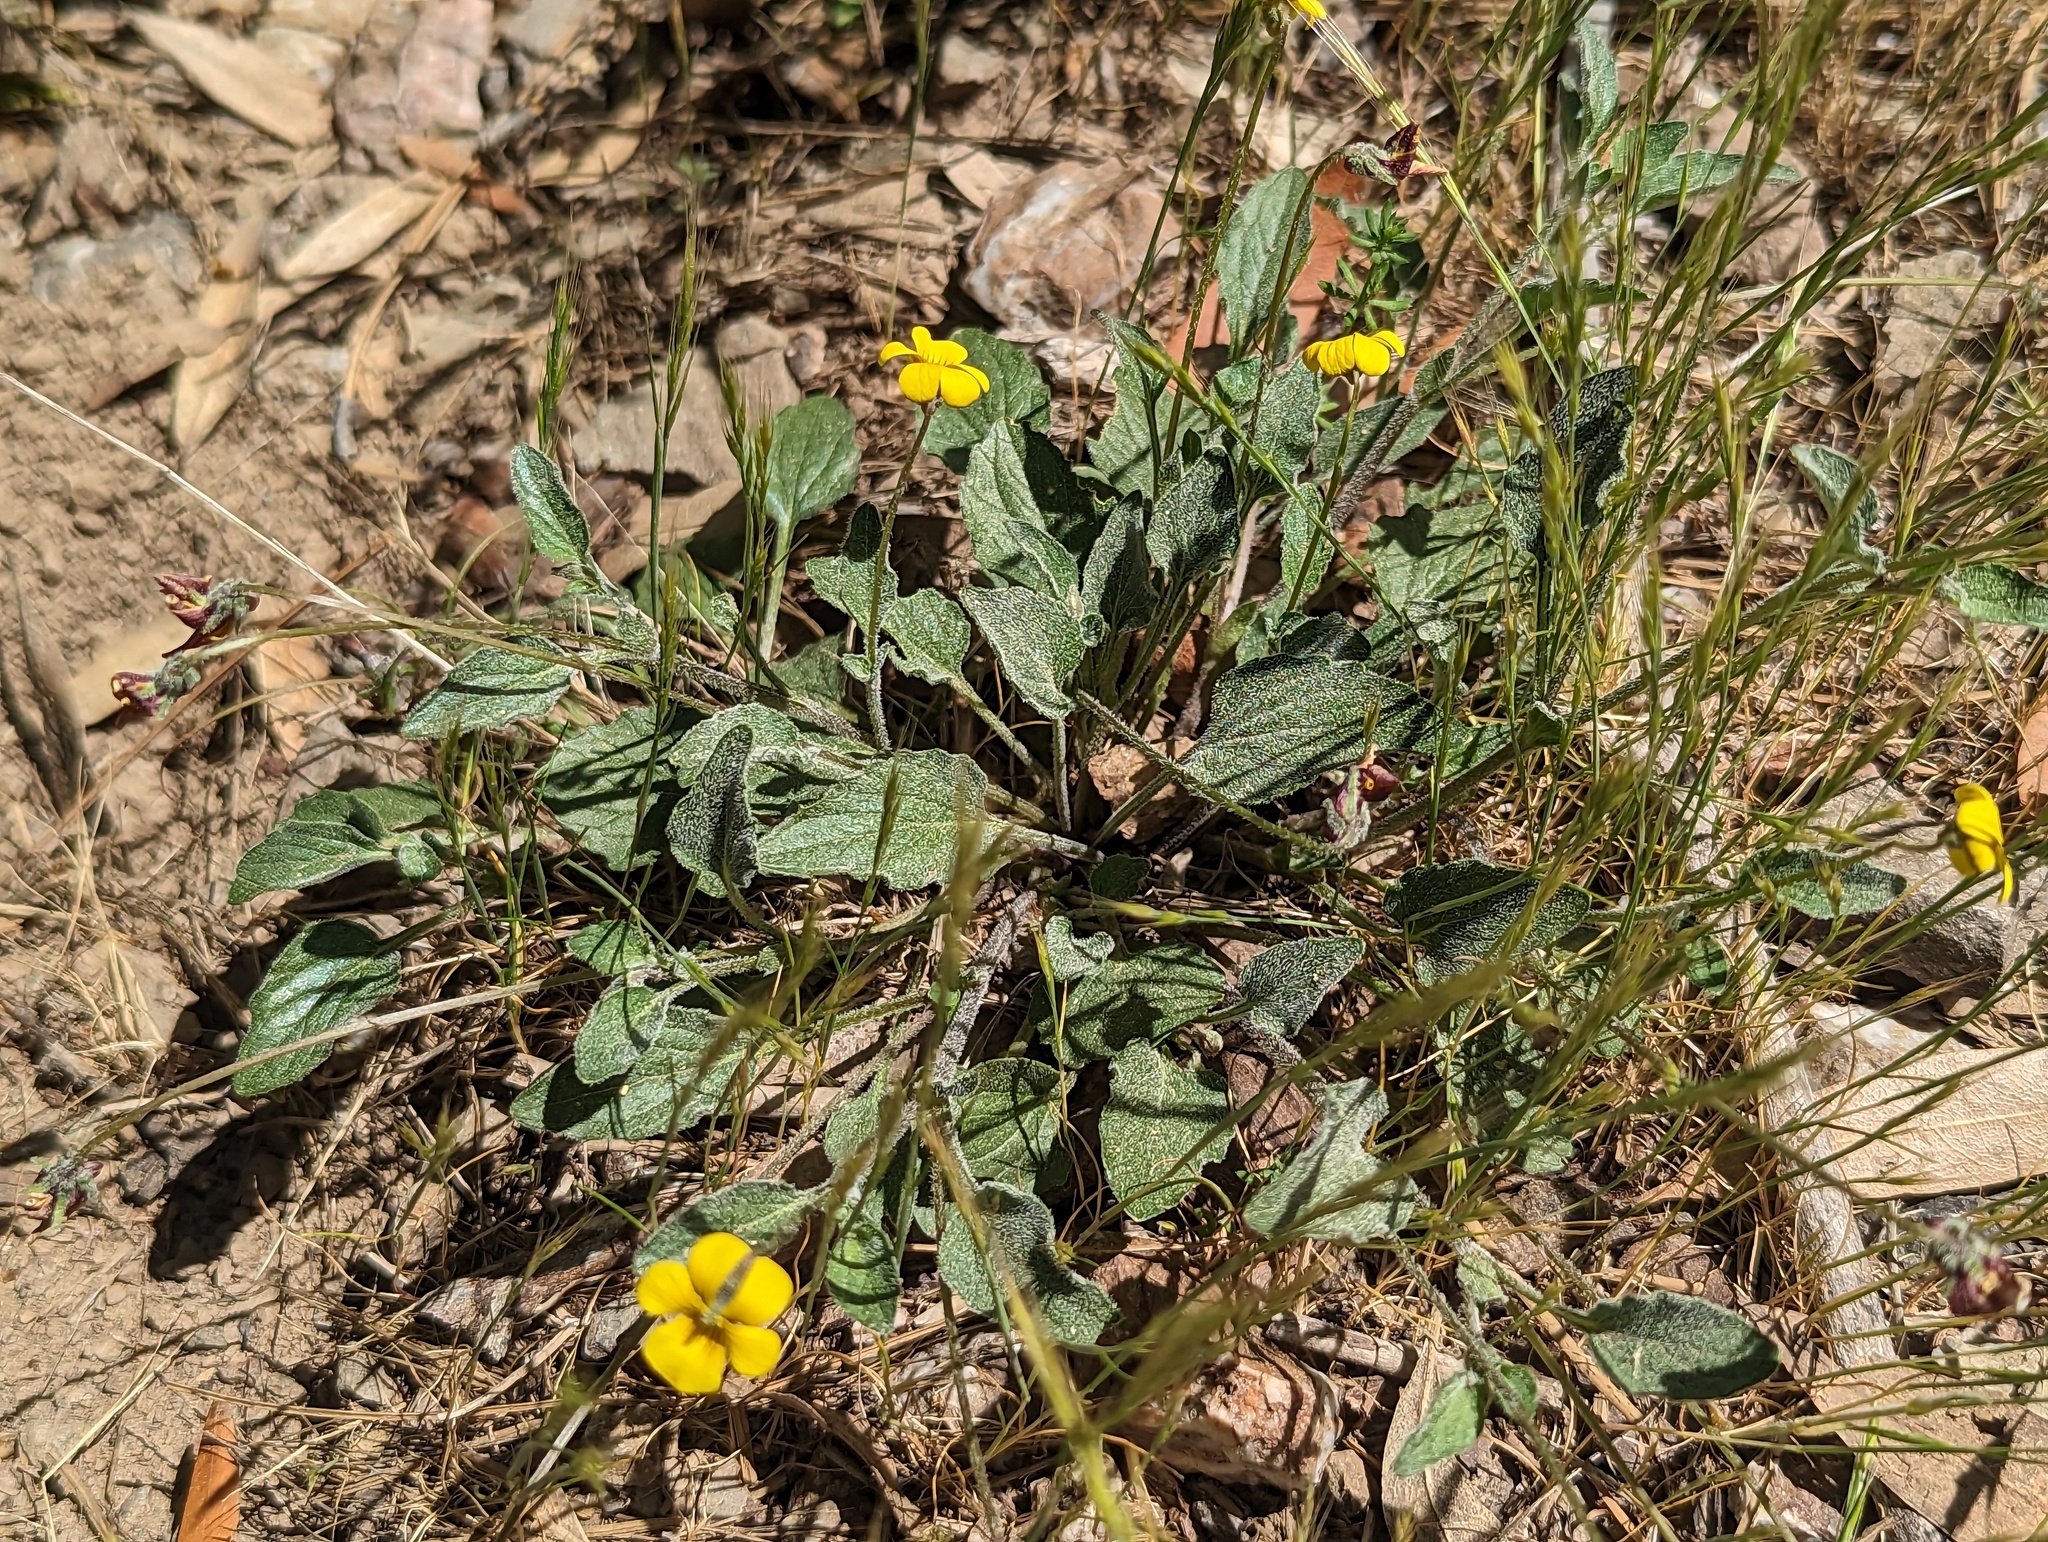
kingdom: Plantae
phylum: Tracheophyta
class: Magnoliopsida
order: Malpighiales
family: Violaceae
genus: Viola
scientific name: Viola purpurea
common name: Pine violet
